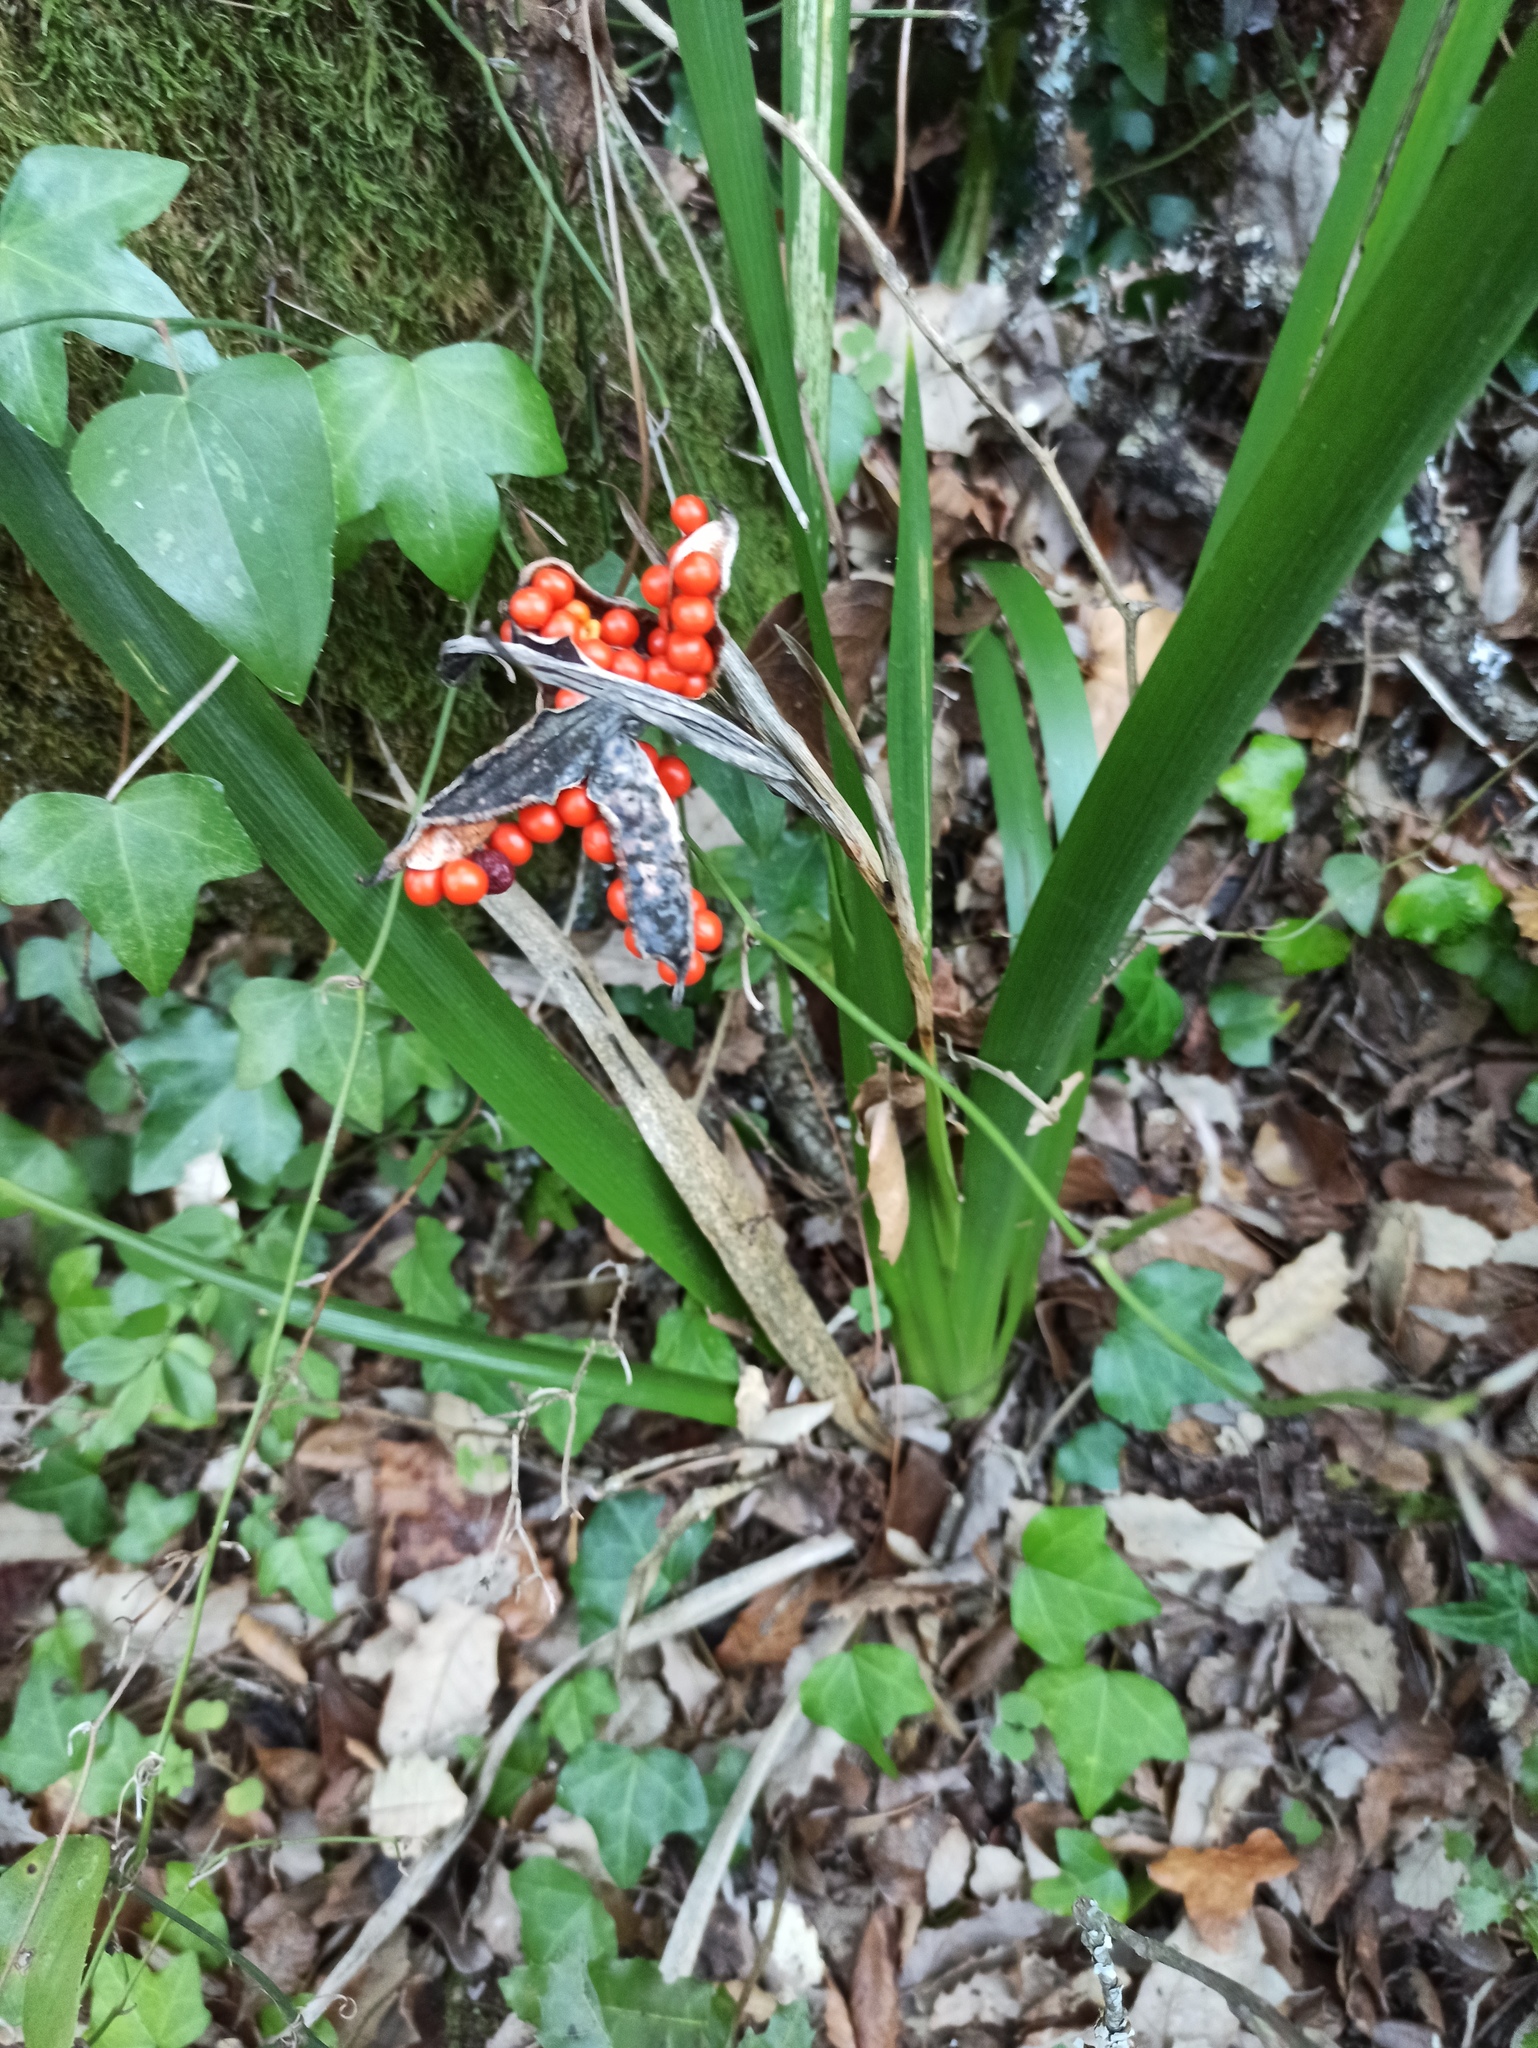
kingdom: Plantae
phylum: Tracheophyta
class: Liliopsida
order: Asparagales
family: Iridaceae
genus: Iris
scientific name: Iris foetidissima
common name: Stinking iris
